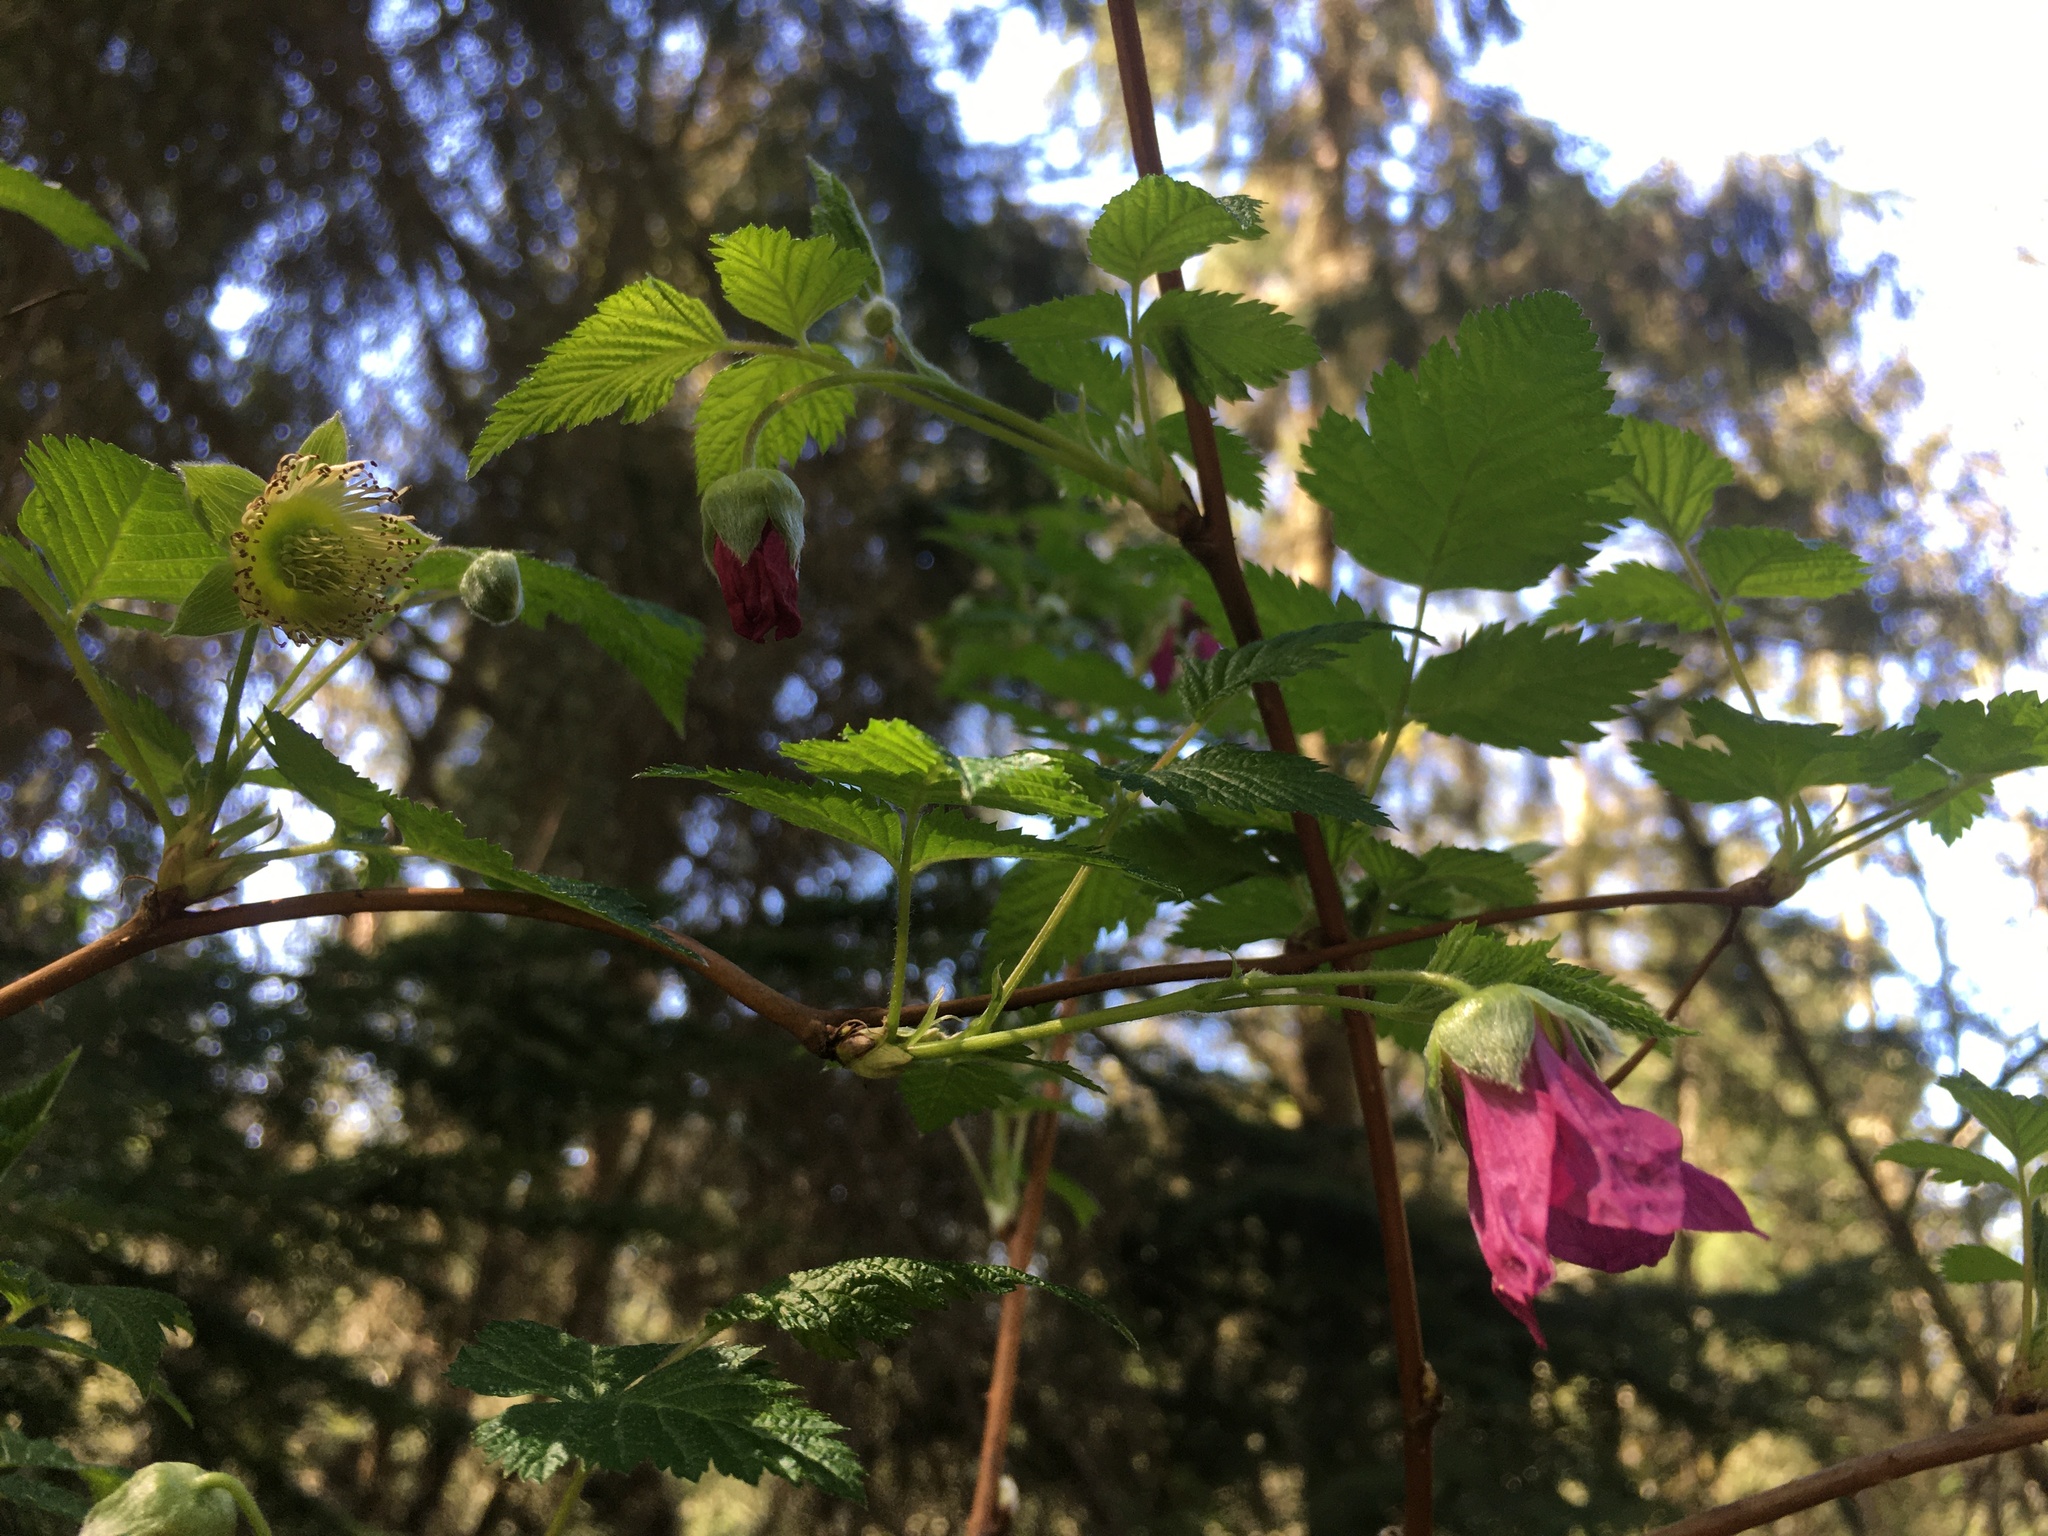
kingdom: Plantae
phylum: Tracheophyta
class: Magnoliopsida
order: Rosales
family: Rosaceae
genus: Rubus
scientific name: Rubus spectabilis
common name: Salmonberry
